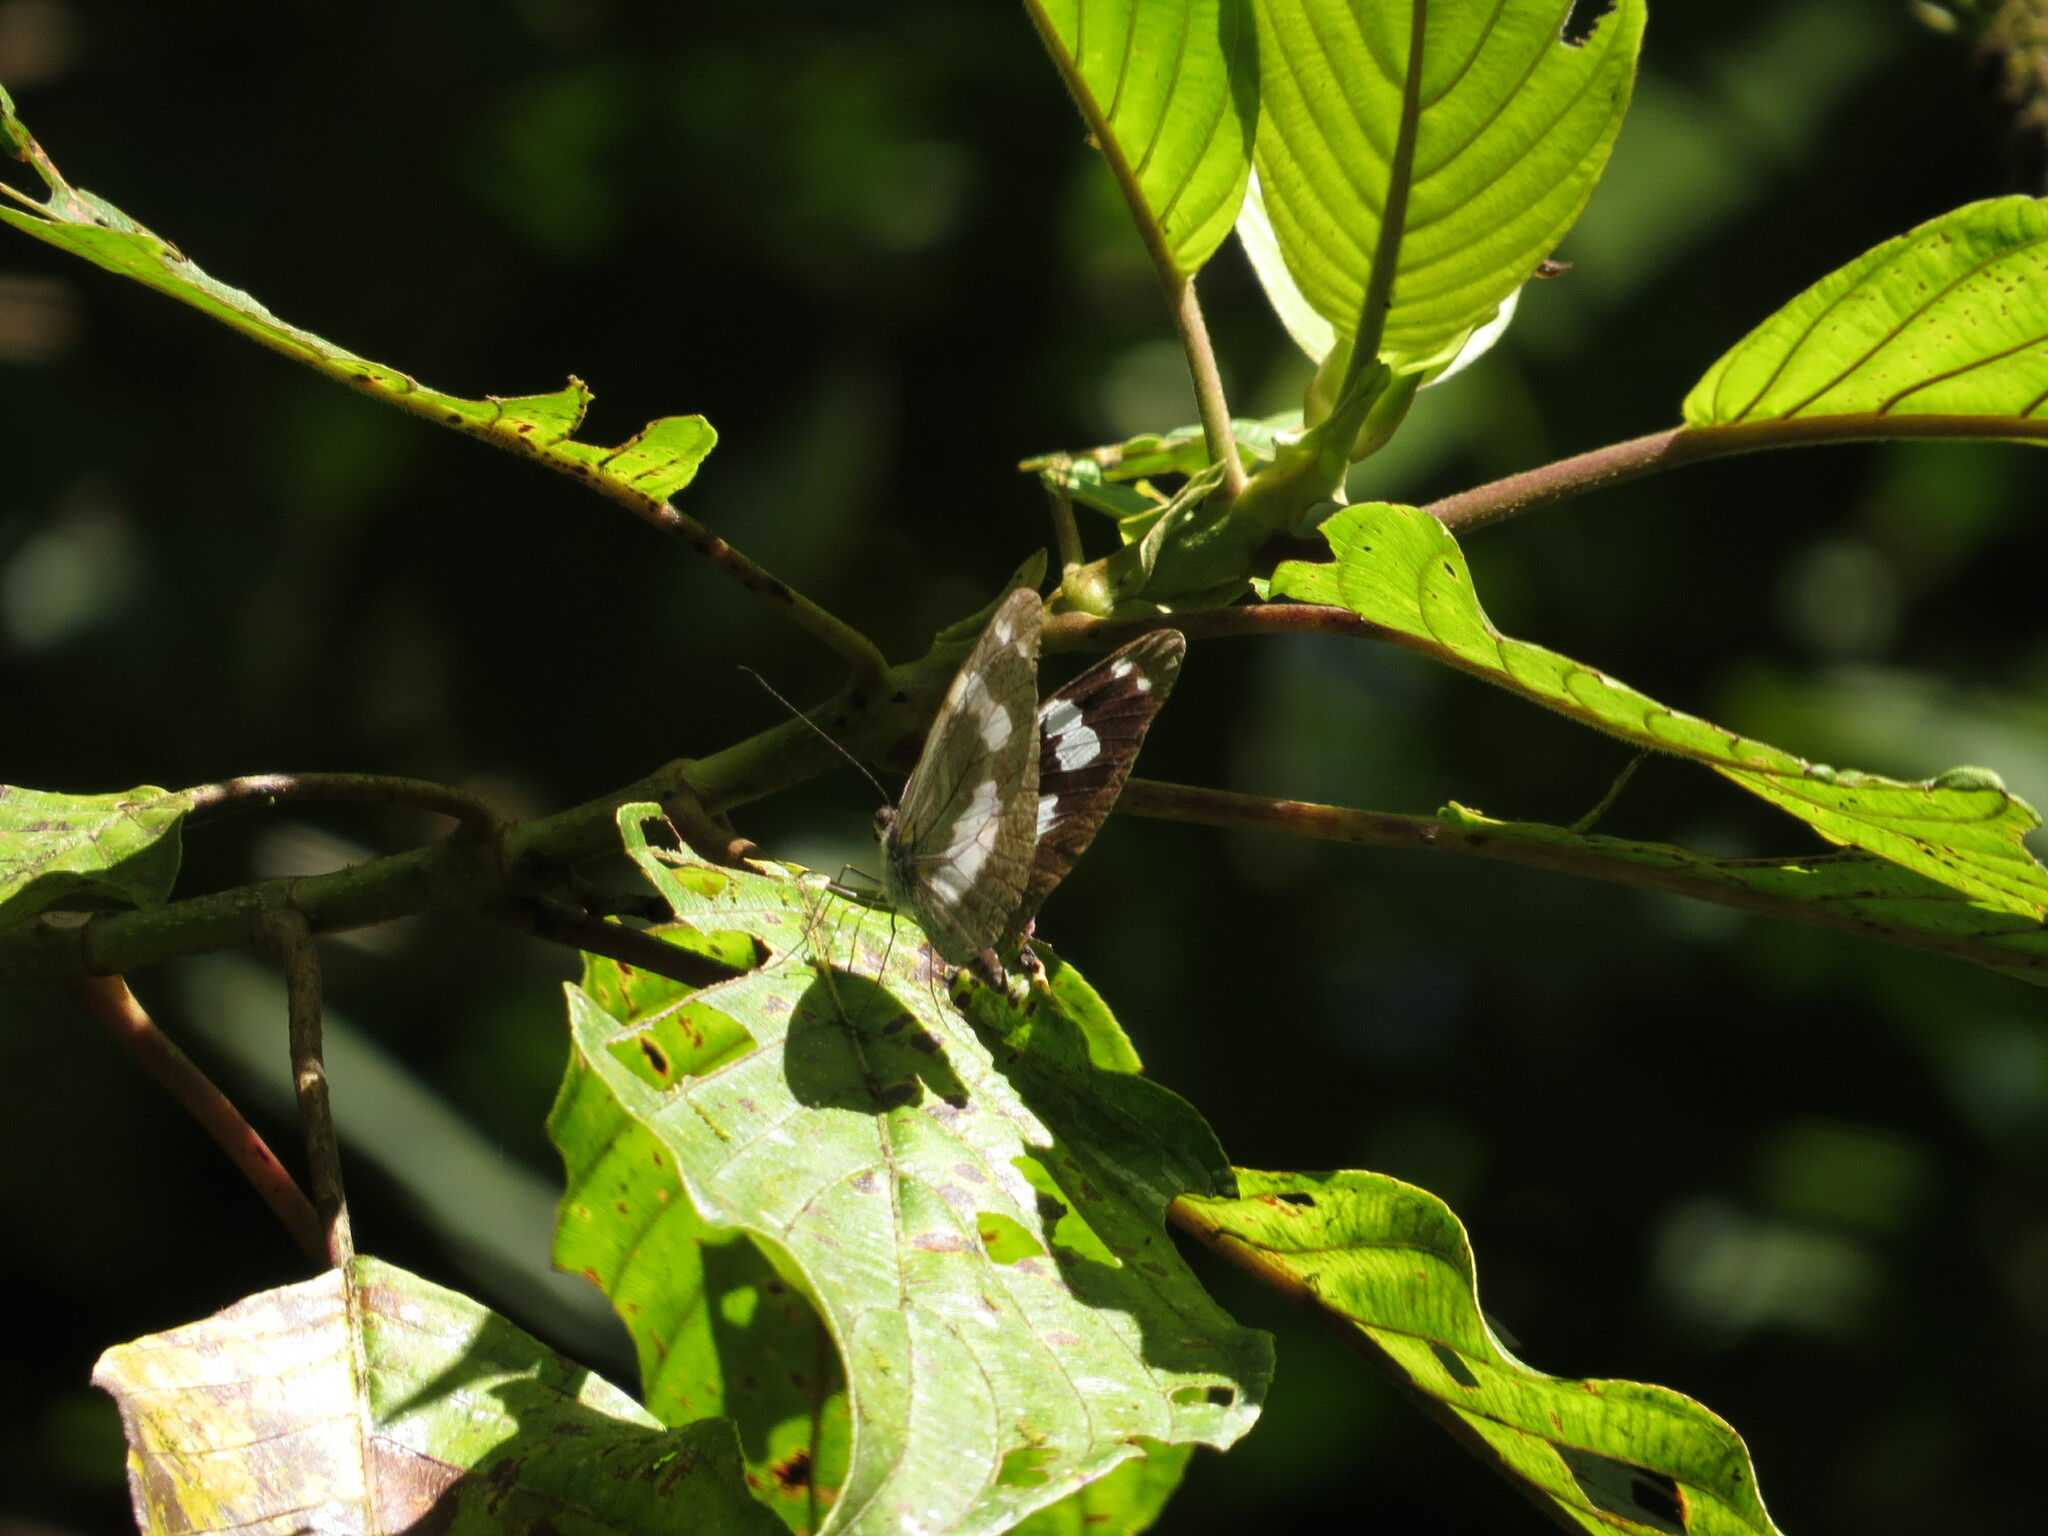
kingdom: Animalia
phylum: Arthropoda
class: Insecta
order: Lepidoptera
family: Pieridae
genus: Dismorphia
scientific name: Dismorphia crisia
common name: Crisia mimic-white
